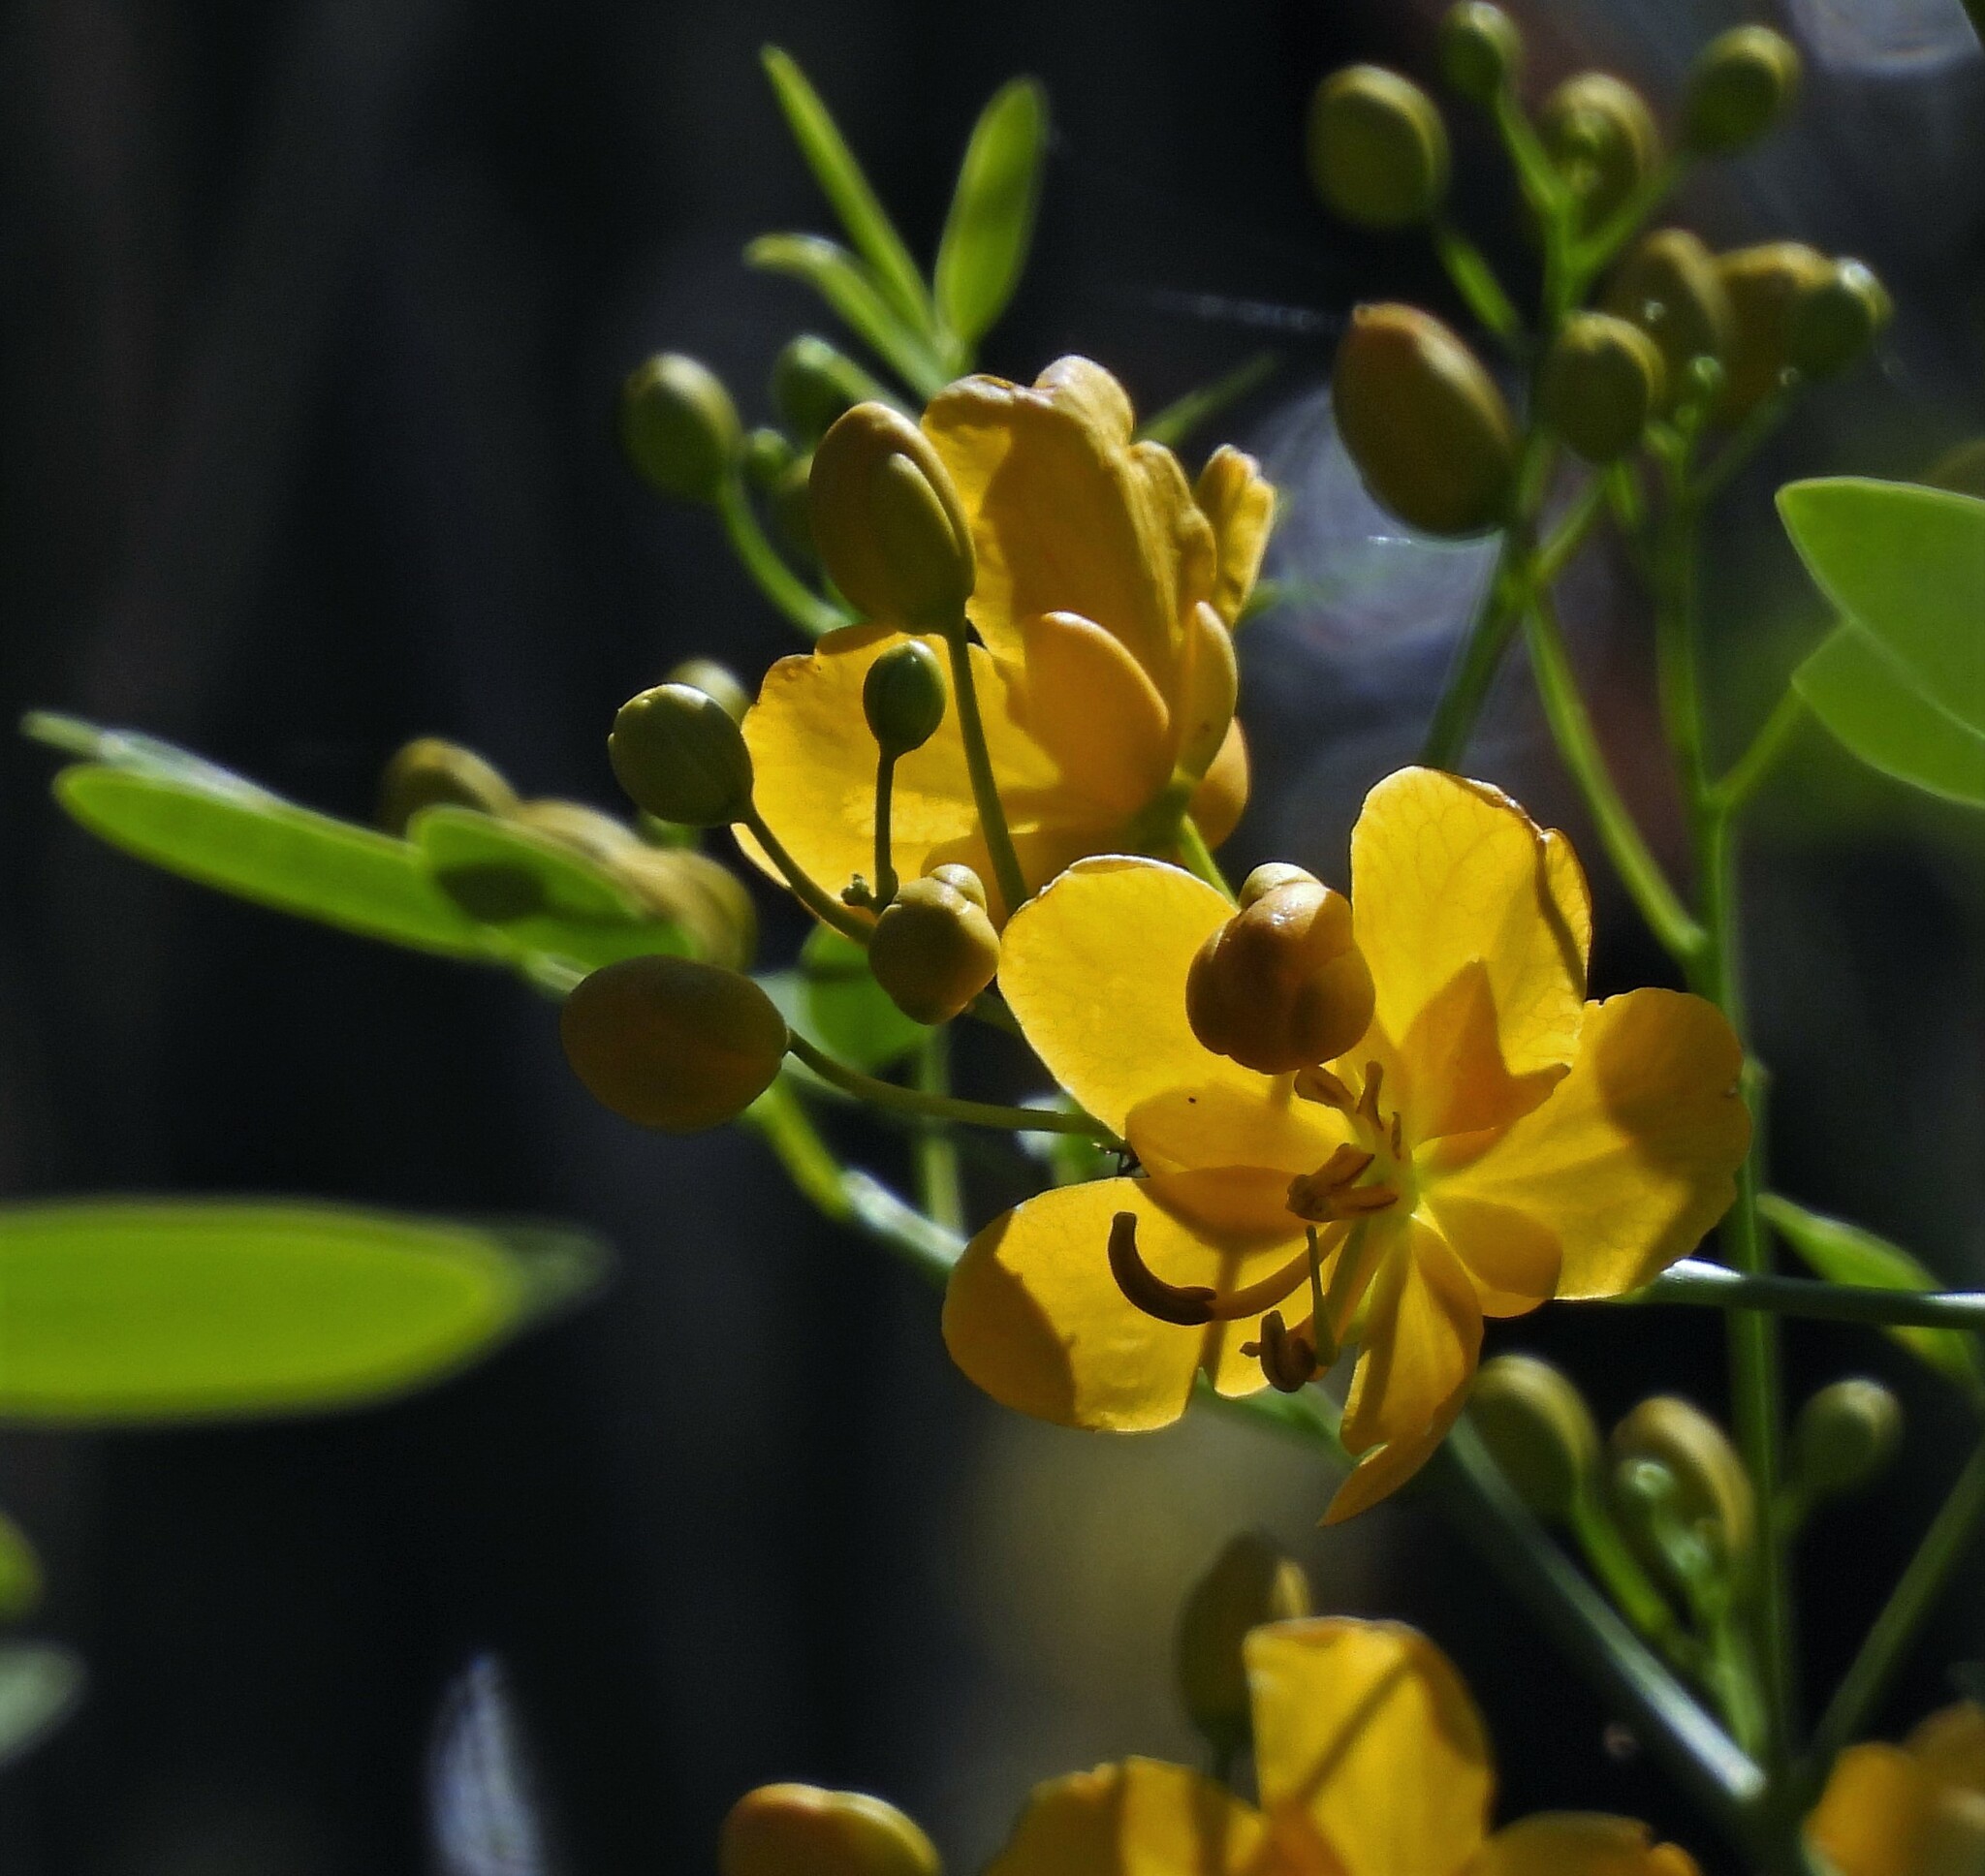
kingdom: Plantae
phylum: Tracheophyta
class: Magnoliopsida
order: Fabales
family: Fabaceae
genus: Senna
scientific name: Senna pendula
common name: Easter cassia
